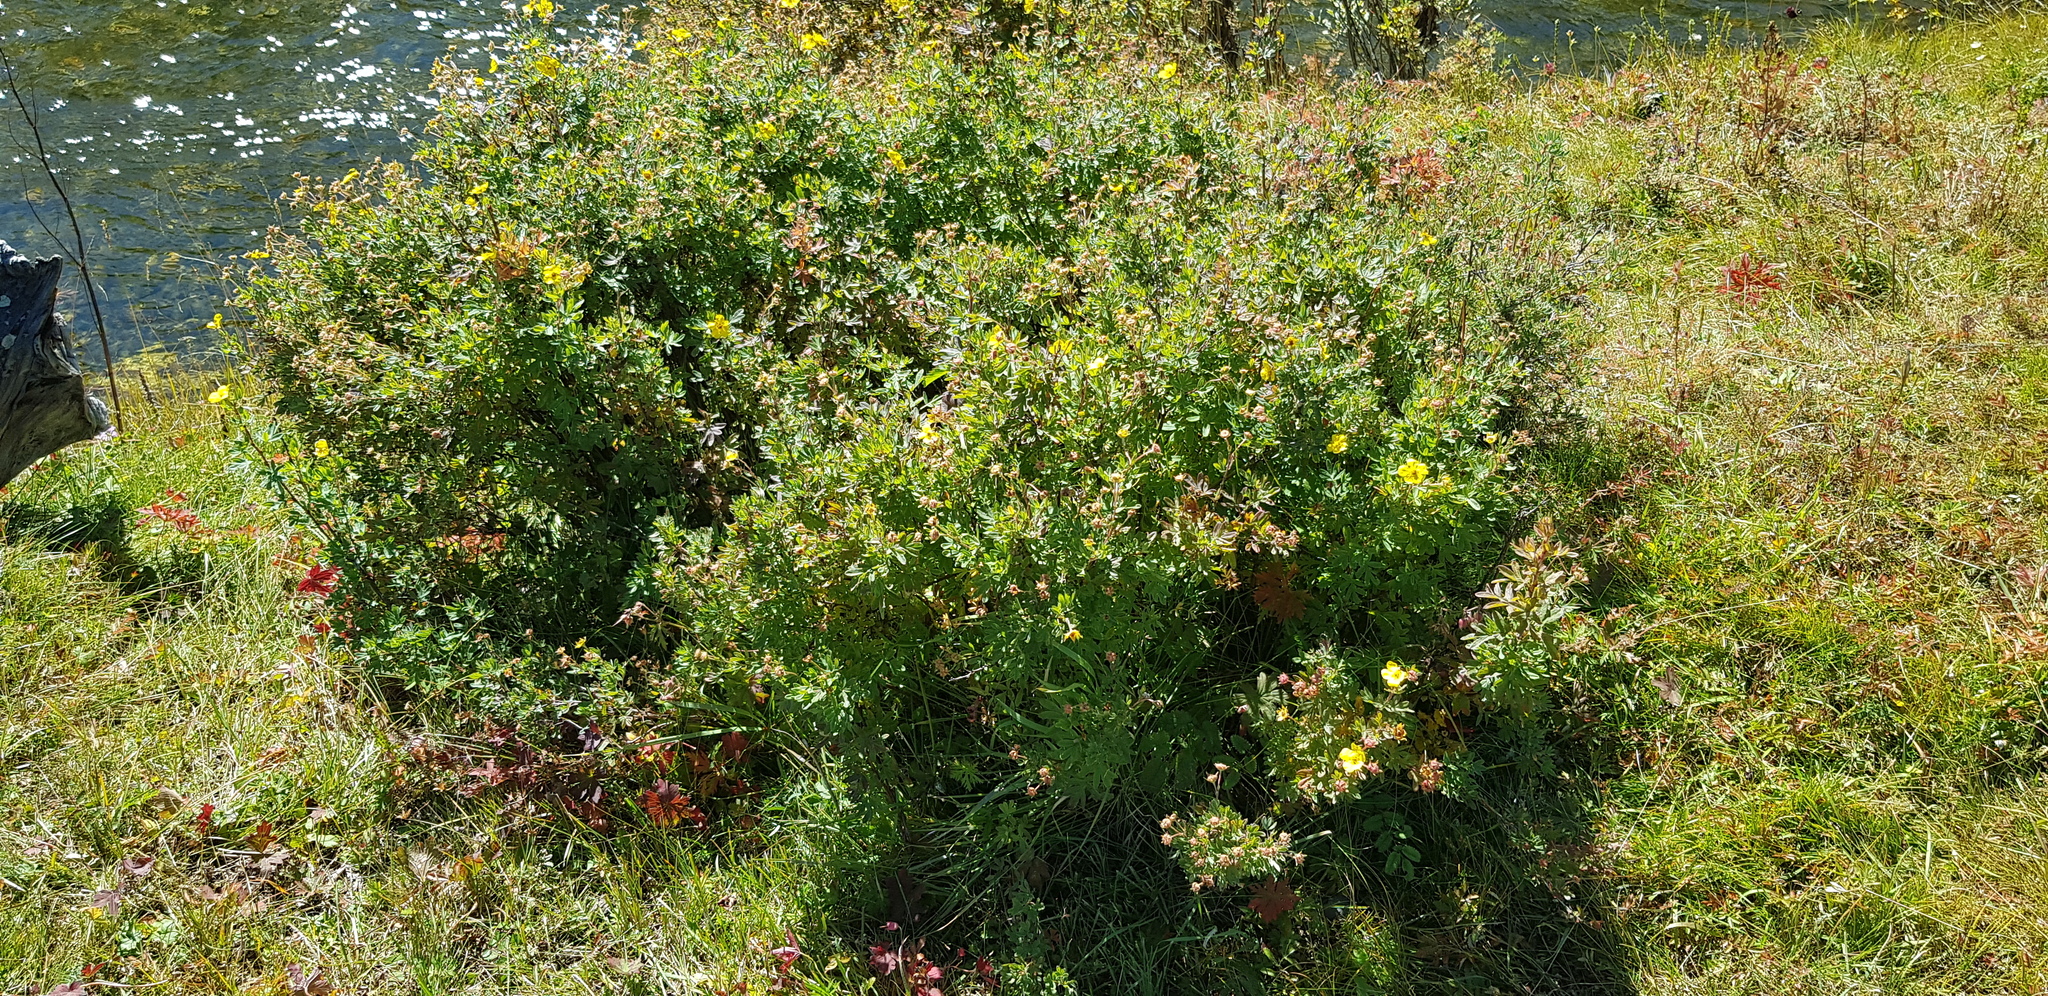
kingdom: Plantae
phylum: Tracheophyta
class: Magnoliopsida
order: Rosales
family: Rosaceae
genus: Dasiphora
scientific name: Dasiphora fruticosa
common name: Shrubby cinquefoil
